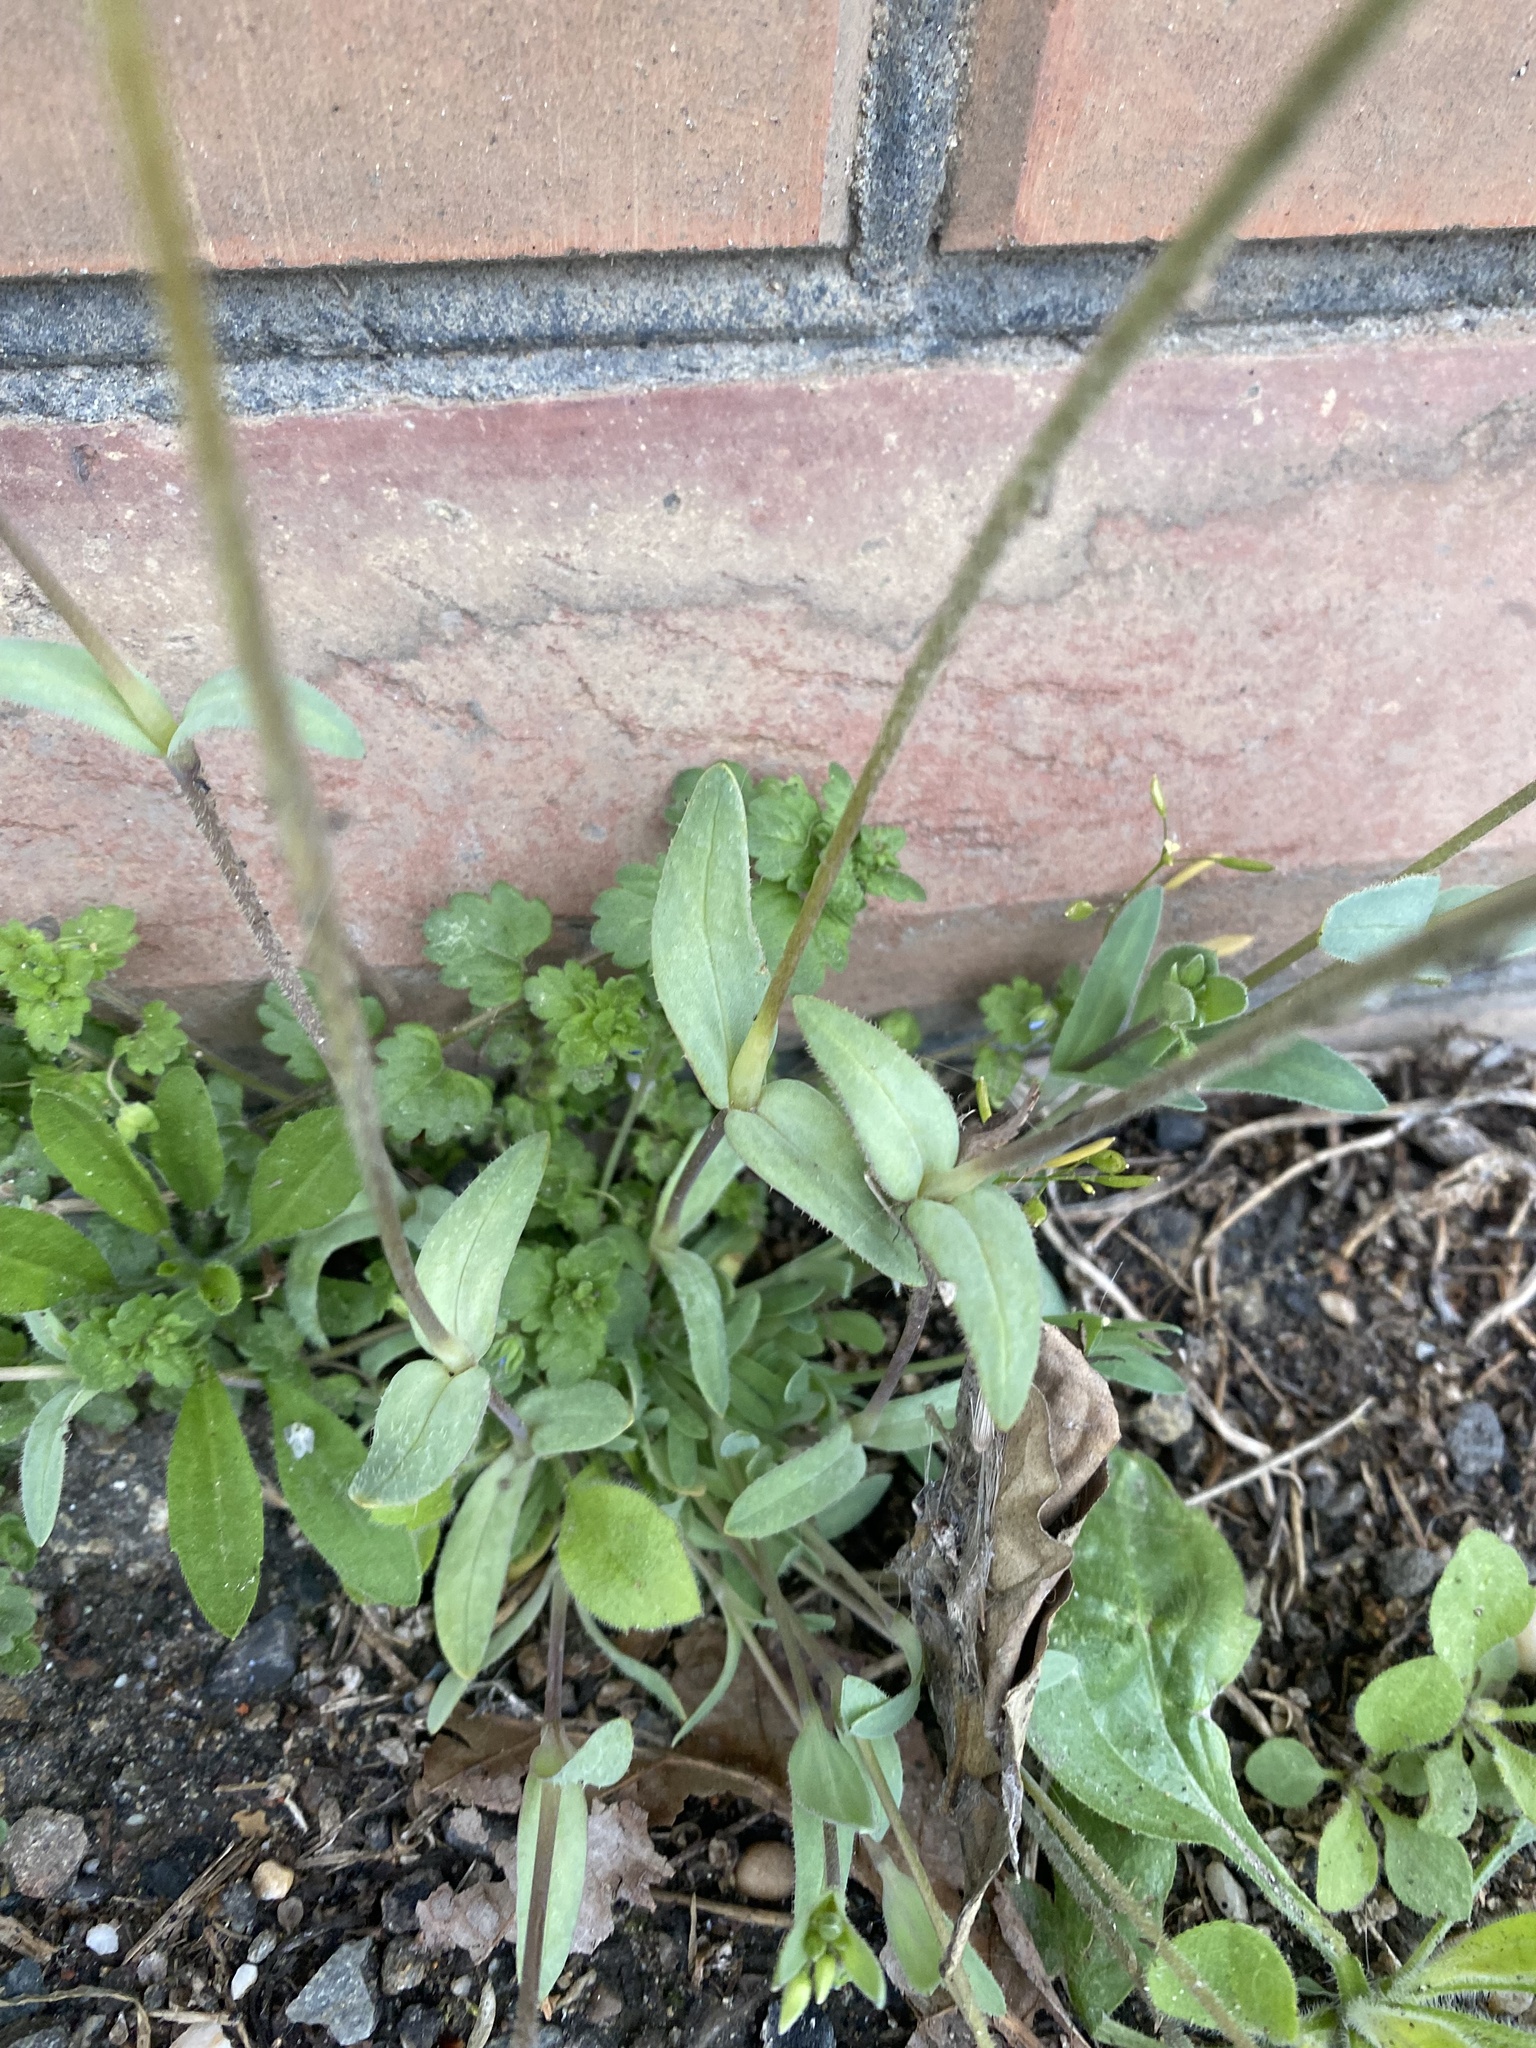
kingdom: Plantae
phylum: Tracheophyta
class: Magnoliopsida
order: Caryophyllales
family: Caryophyllaceae
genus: Holosteum
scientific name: Holosteum umbellatum
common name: Jagged chickweed
